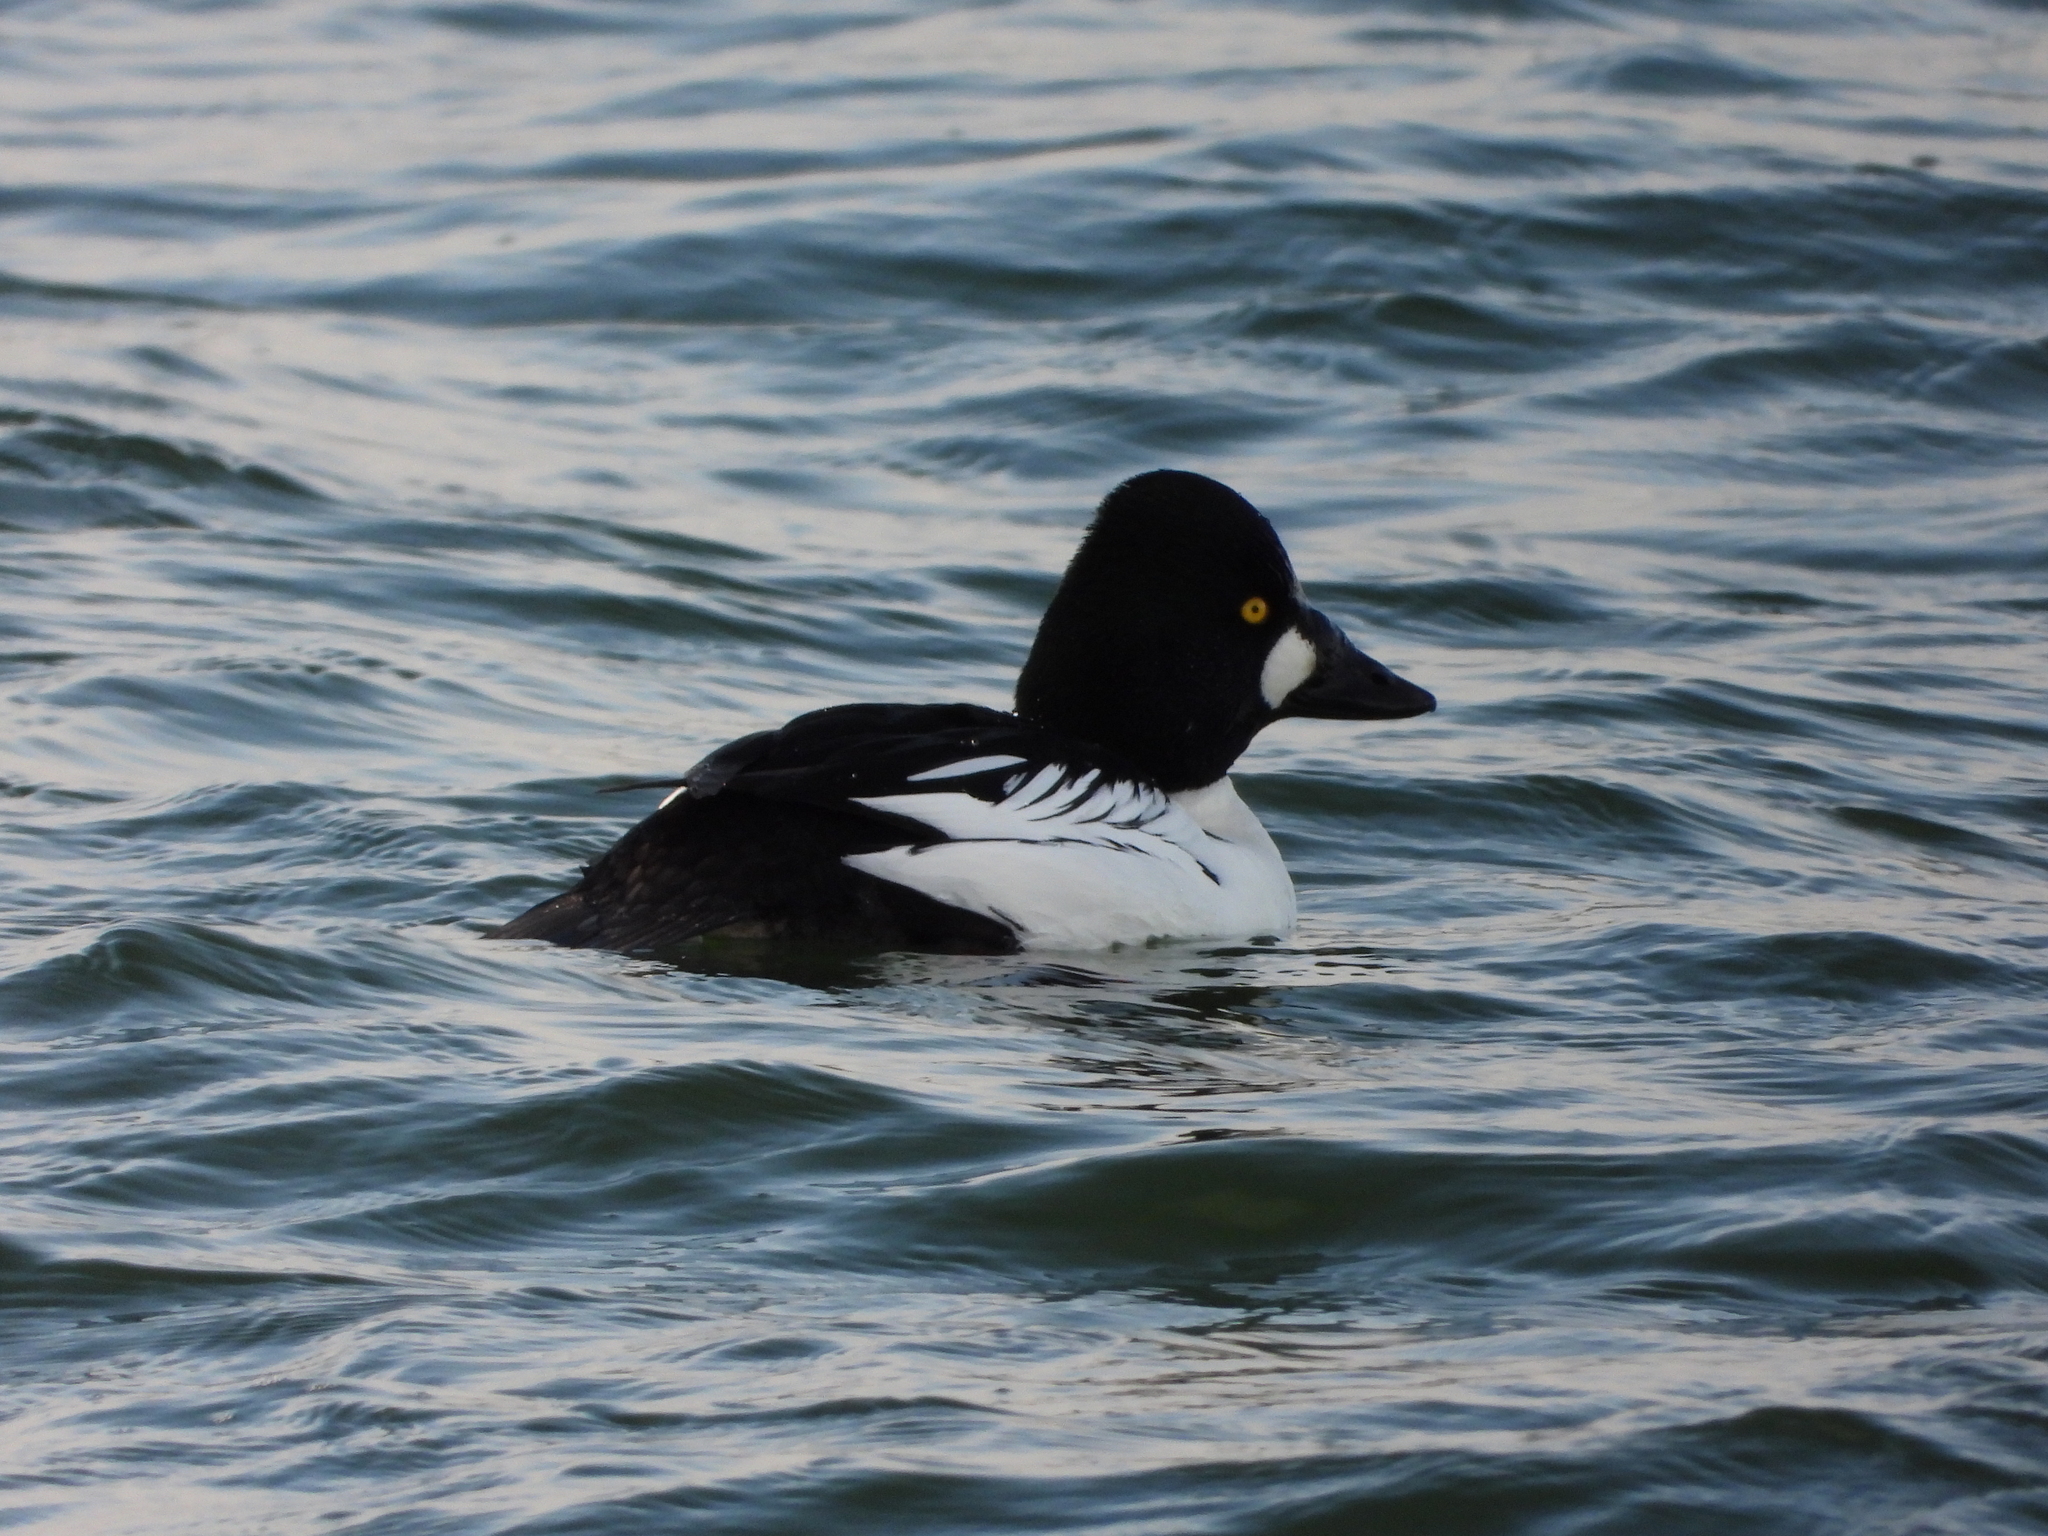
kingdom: Animalia
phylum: Chordata
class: Aves
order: Anseriformes
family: Anatidae
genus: Bucephala
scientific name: Bucephala clangula
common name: Common goldeneye
